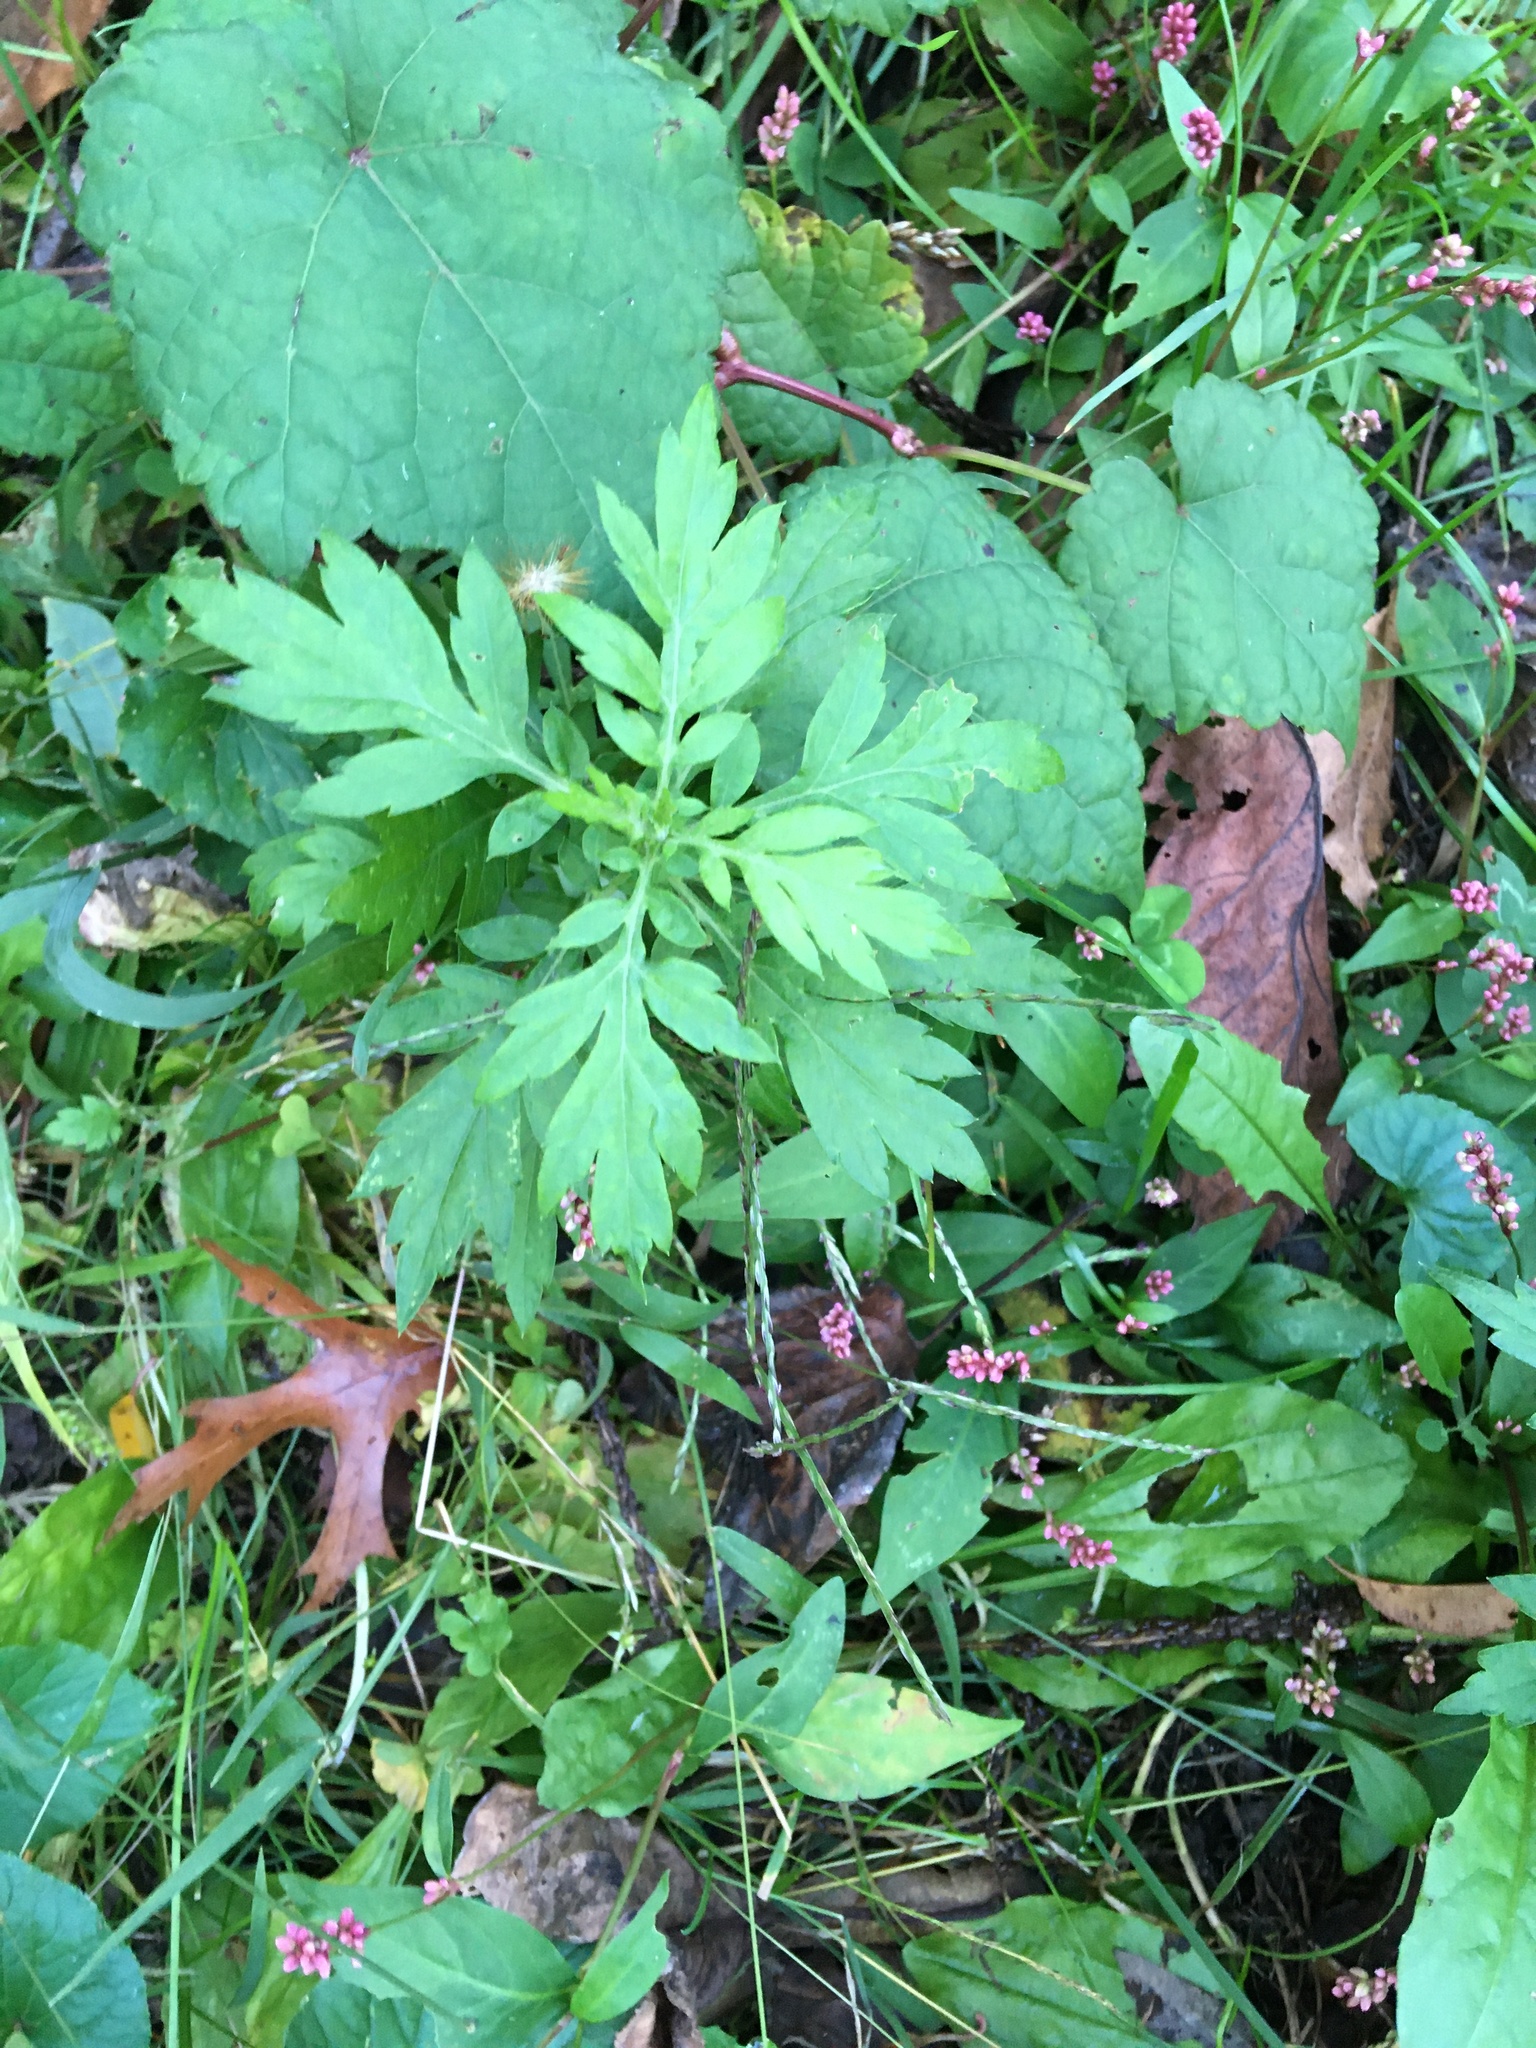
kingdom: Plantae
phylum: Tracheophyta
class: Magnoliopsida
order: Asterales
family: Asteraceae
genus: Artemisia
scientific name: Artemisia vulgaris
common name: Mugwort
